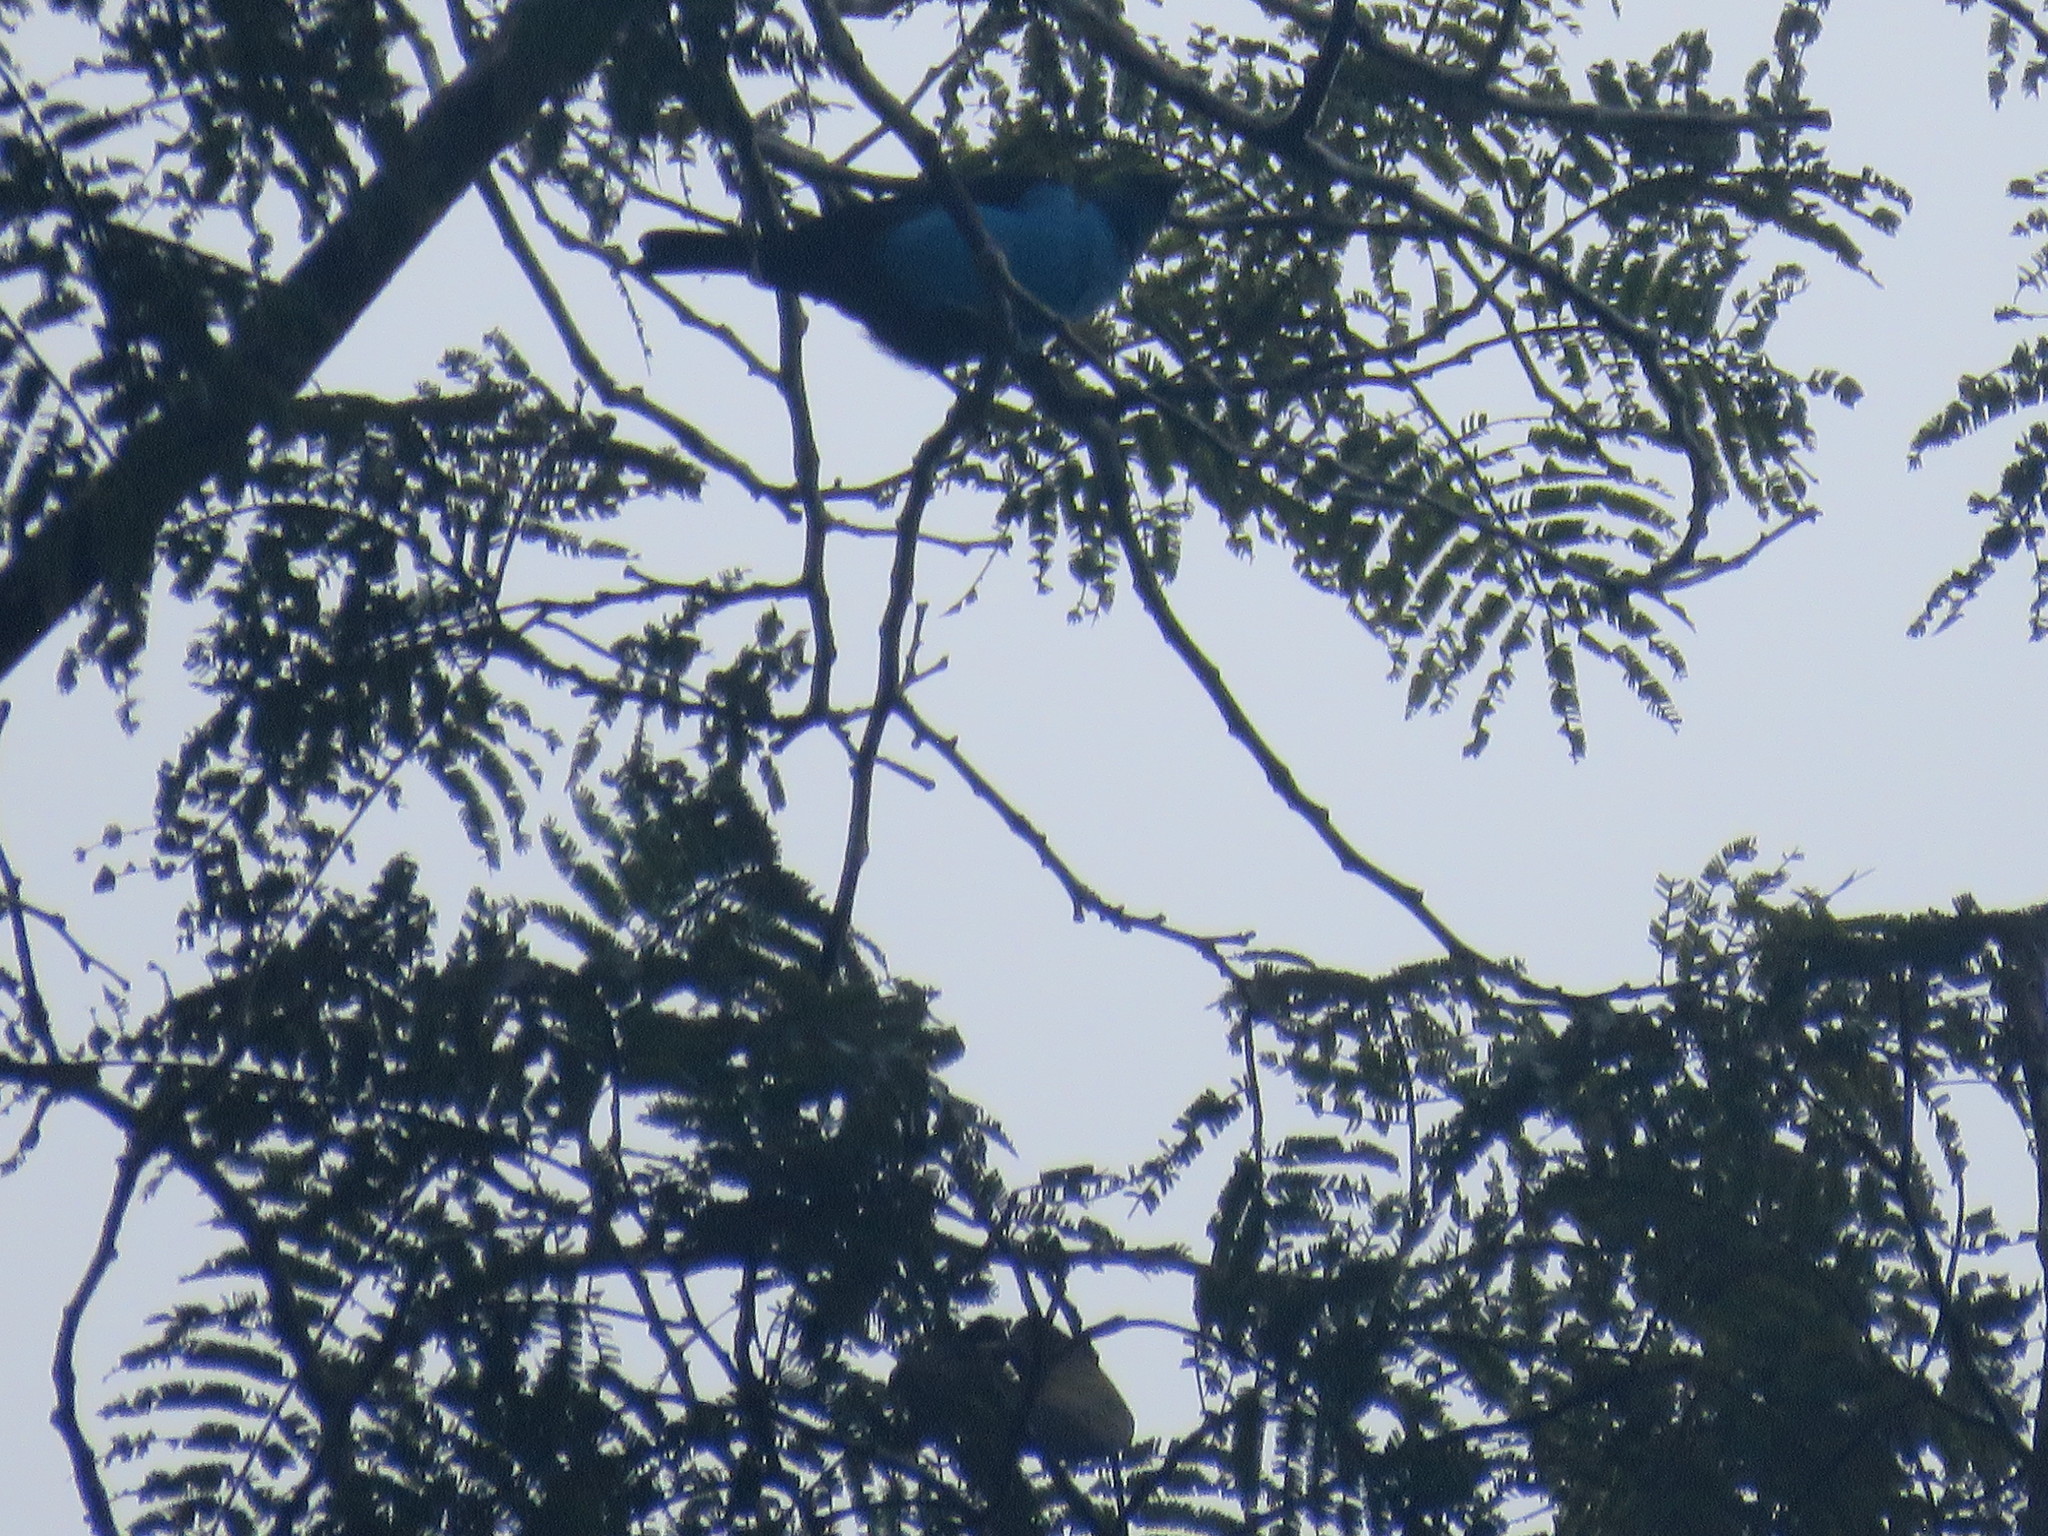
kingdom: Animalia
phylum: Chordata
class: Aves
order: Passeriformes
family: Thraupidae
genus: Tangara
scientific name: Tangara chilensis
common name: Paradise tanager
